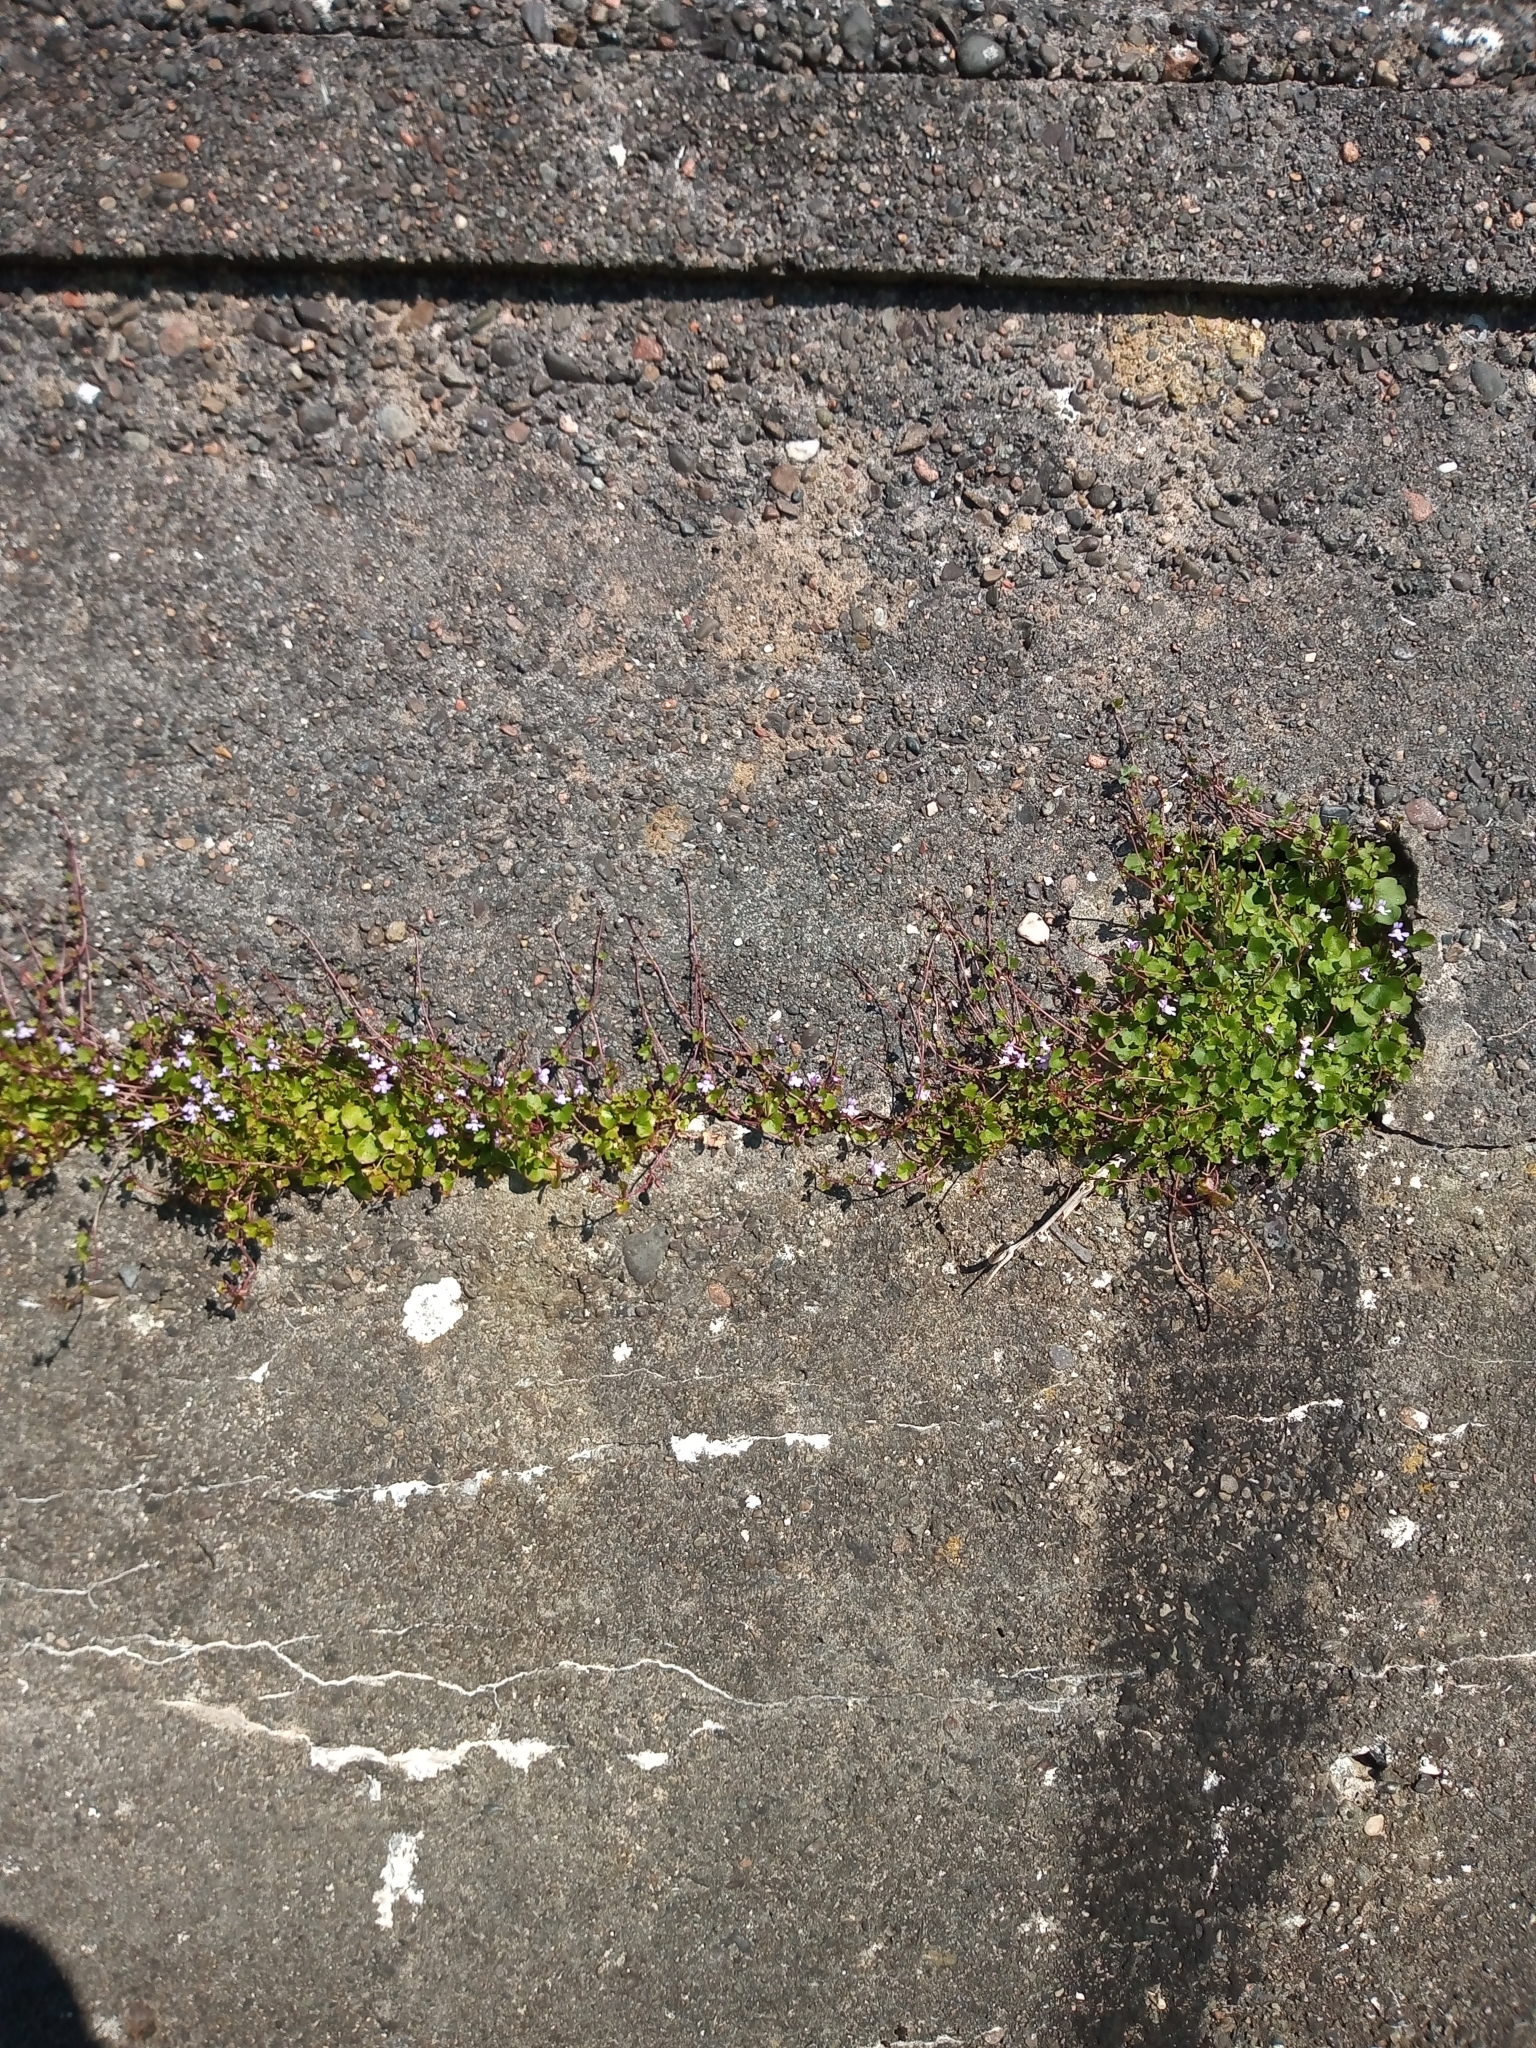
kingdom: Plantae
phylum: Tracheophyta
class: Magnoliopsida
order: Lamiales
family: Plantaginaceae
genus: Cymbalaria
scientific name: Cymbalaria muralis
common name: Ivy-leaved toadflax
